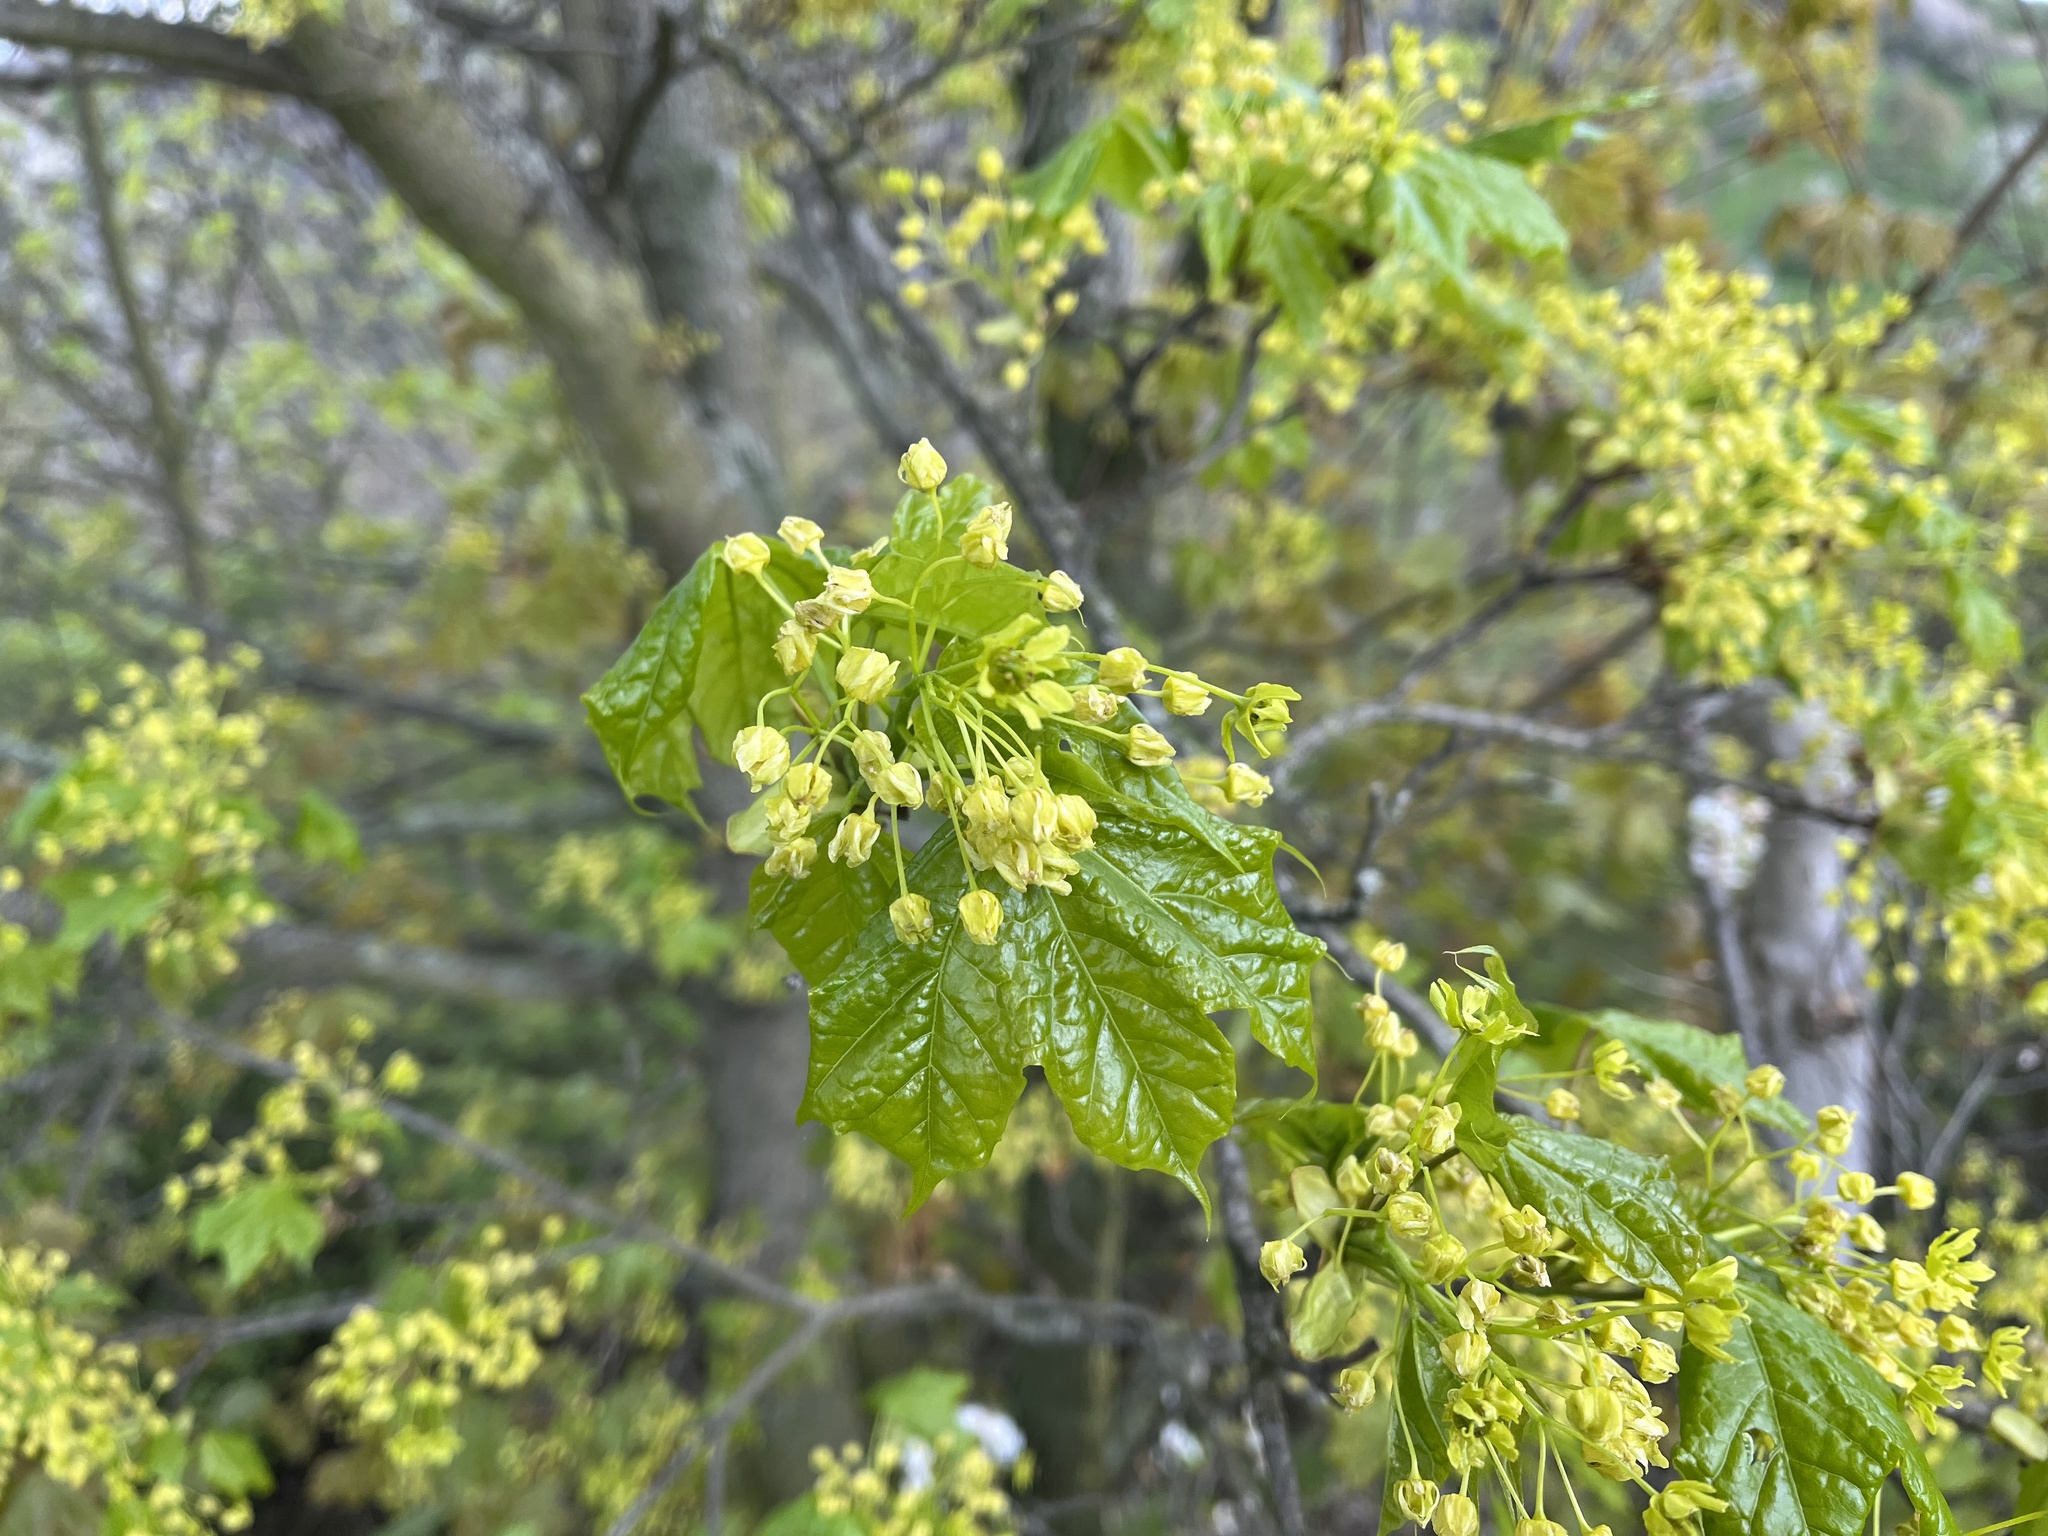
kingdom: Plantae
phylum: Tracheophyta
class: Magnoliopsida
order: Sapindales
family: Sapindaceae
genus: Acer
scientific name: Acer platanoides
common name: Norway maple
